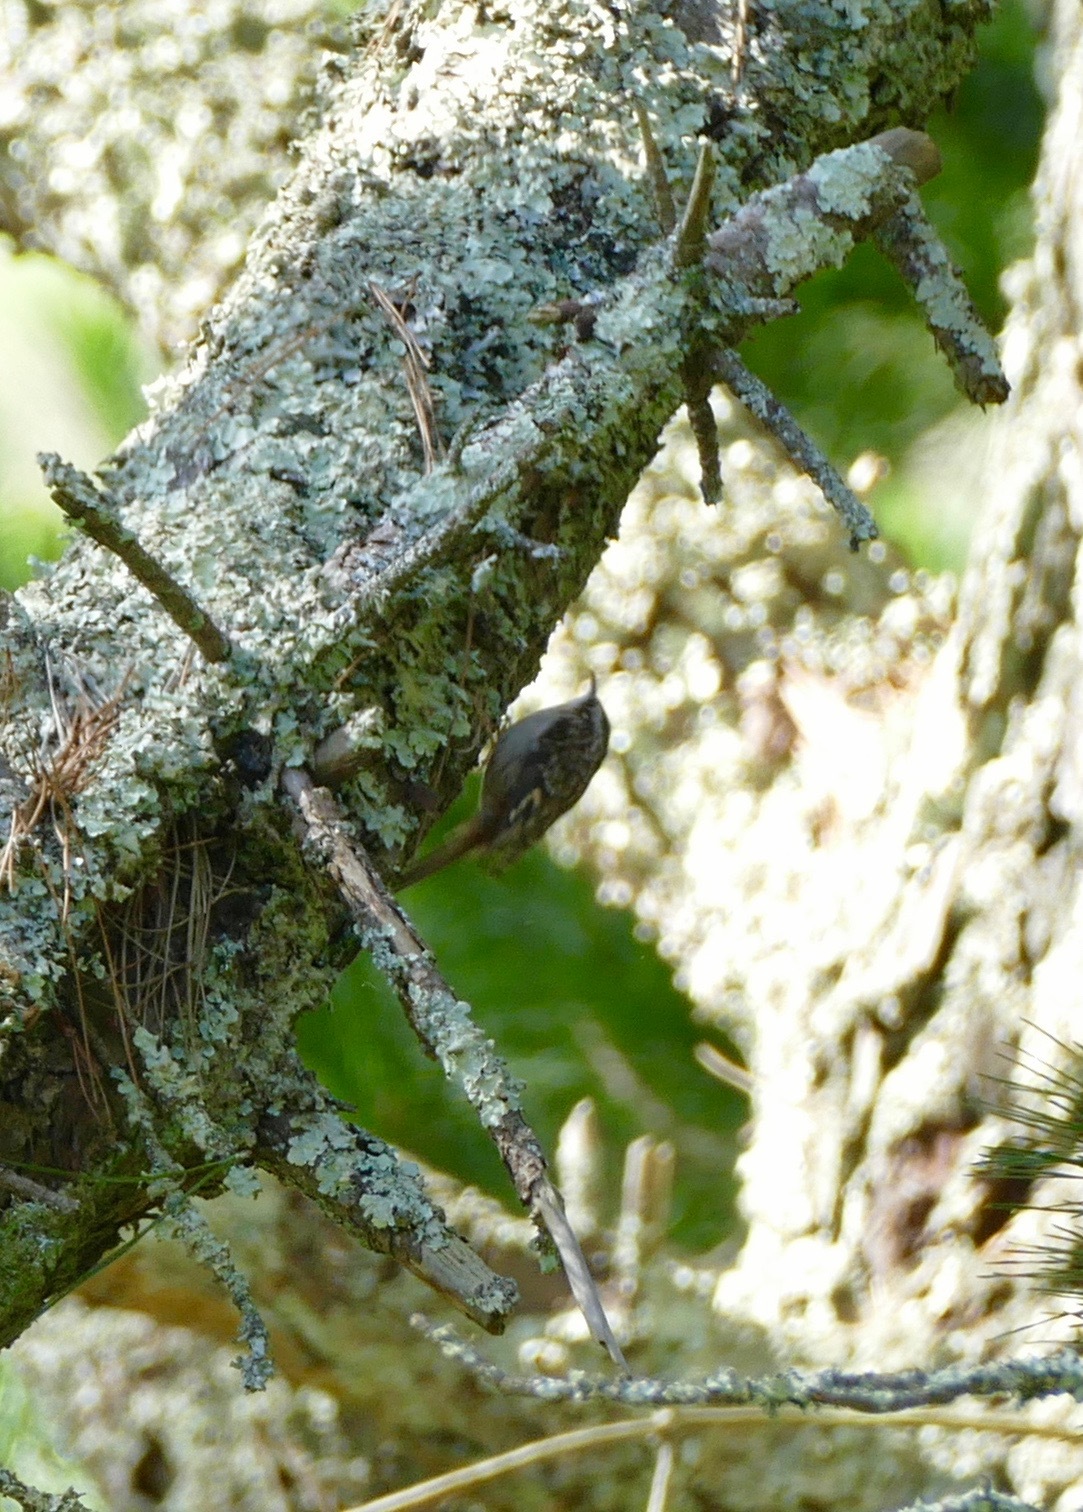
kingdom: Animalia
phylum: Chordata
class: Aves
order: Passeriformes
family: Certhiidae
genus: Certhia
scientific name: Certhia americana
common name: Brown creeper
